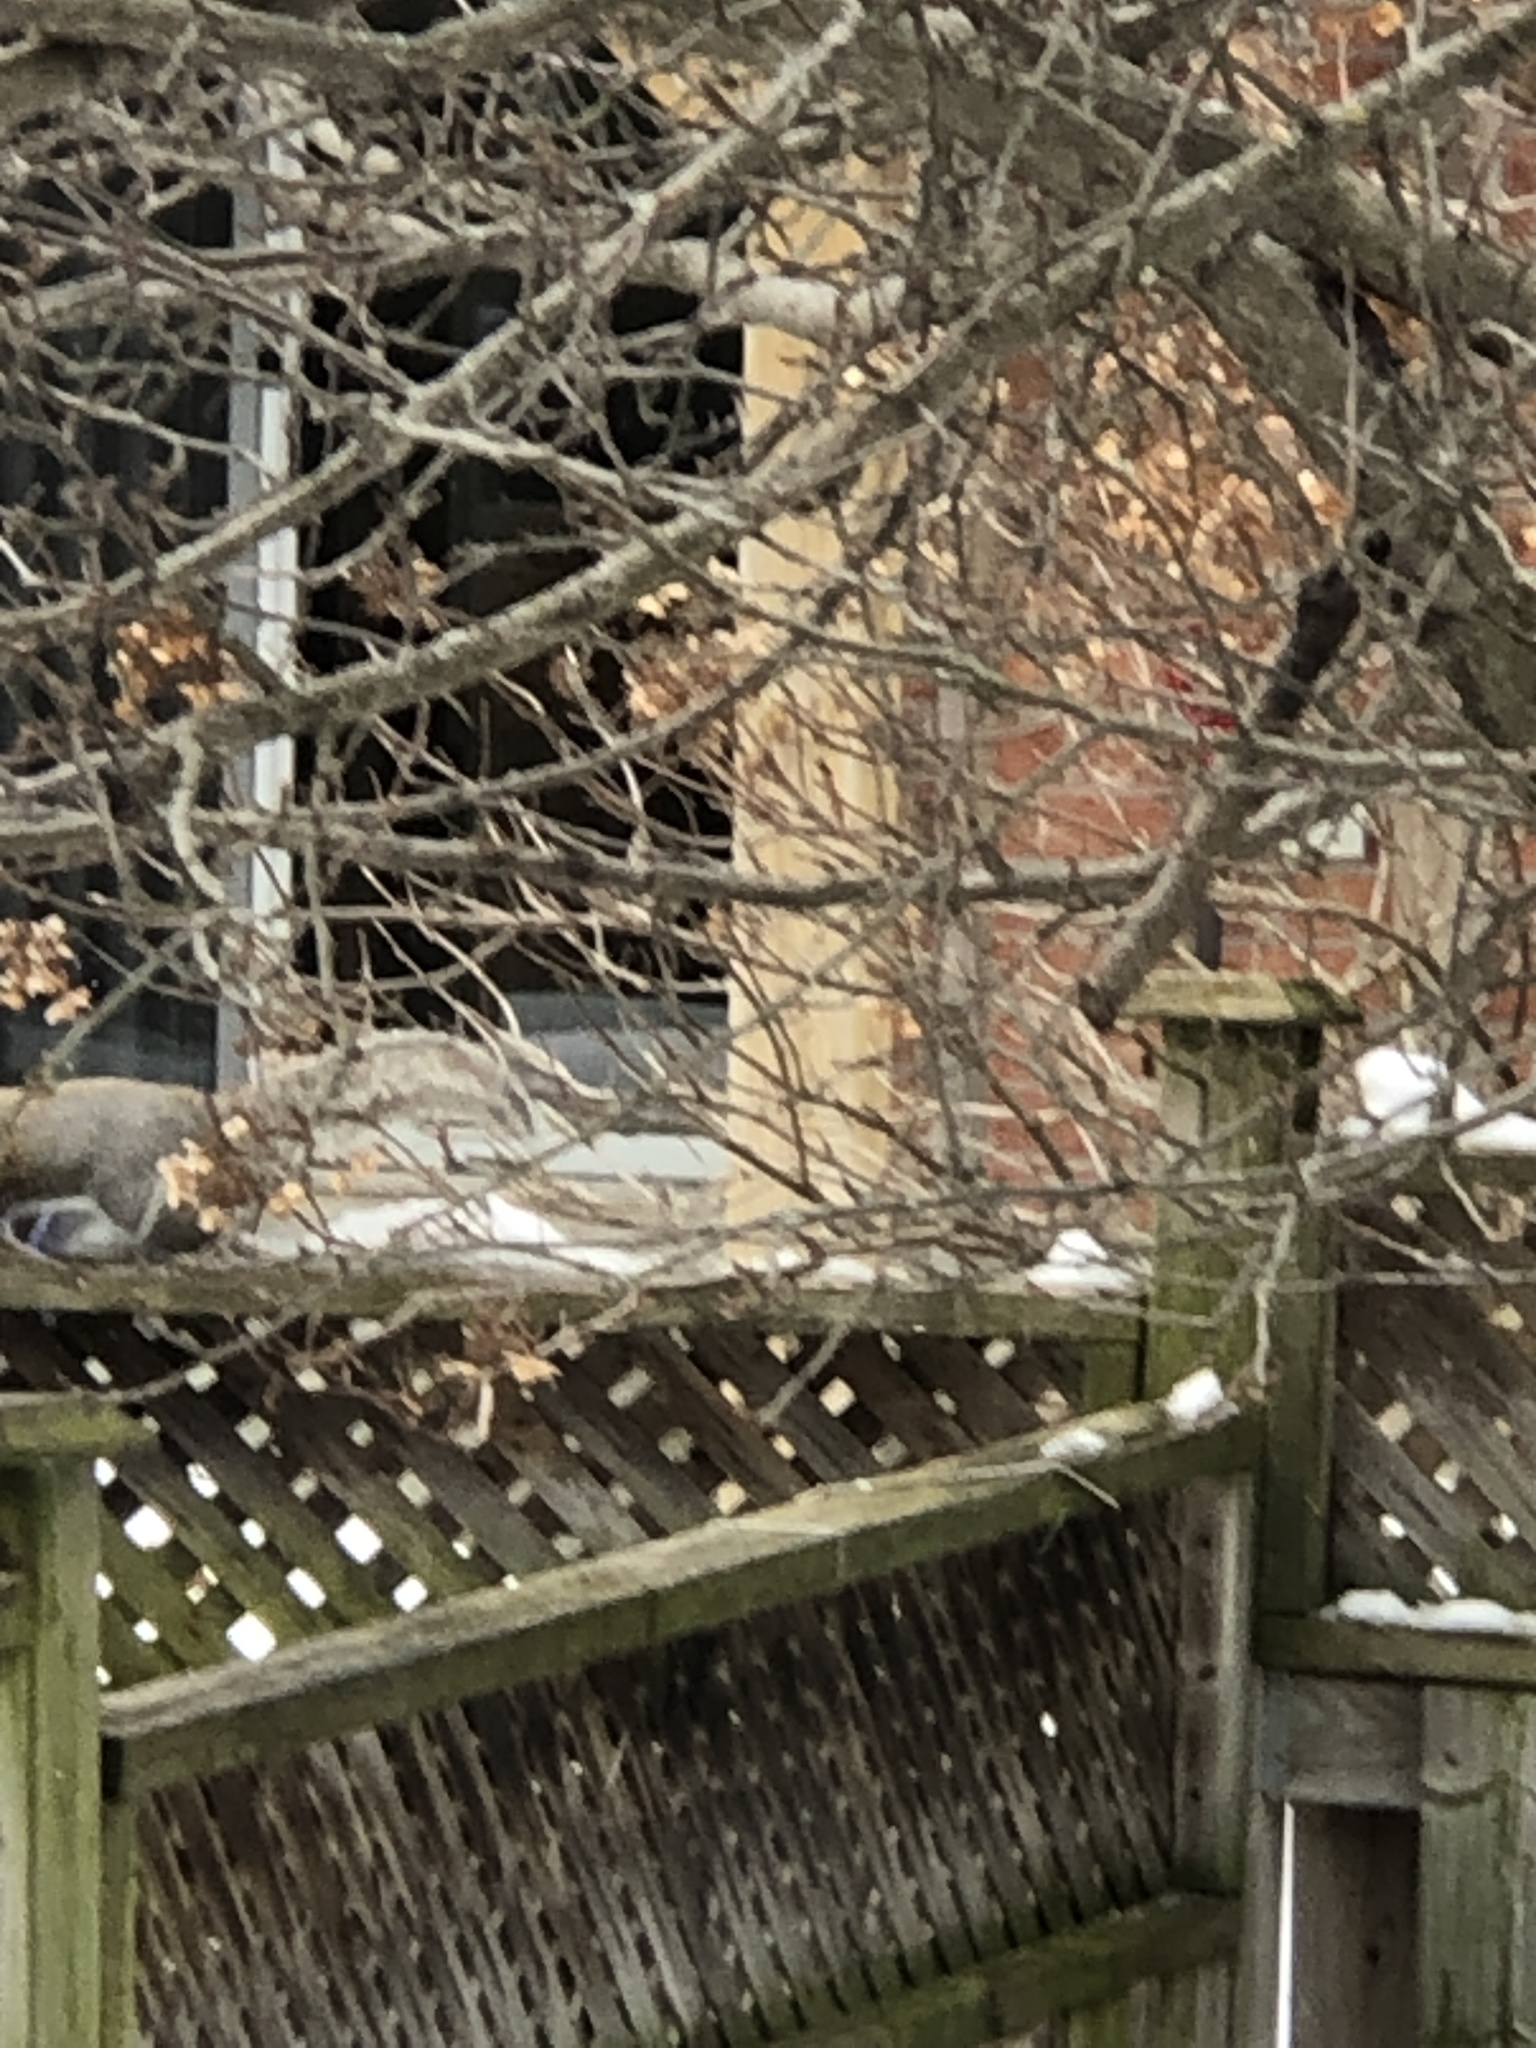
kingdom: Animalia
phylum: Chordata
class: Mammalia
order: Rodentia
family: Sciuridae
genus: Sciurus
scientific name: Sciurus carolinensis
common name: Eastern gray squirrel
